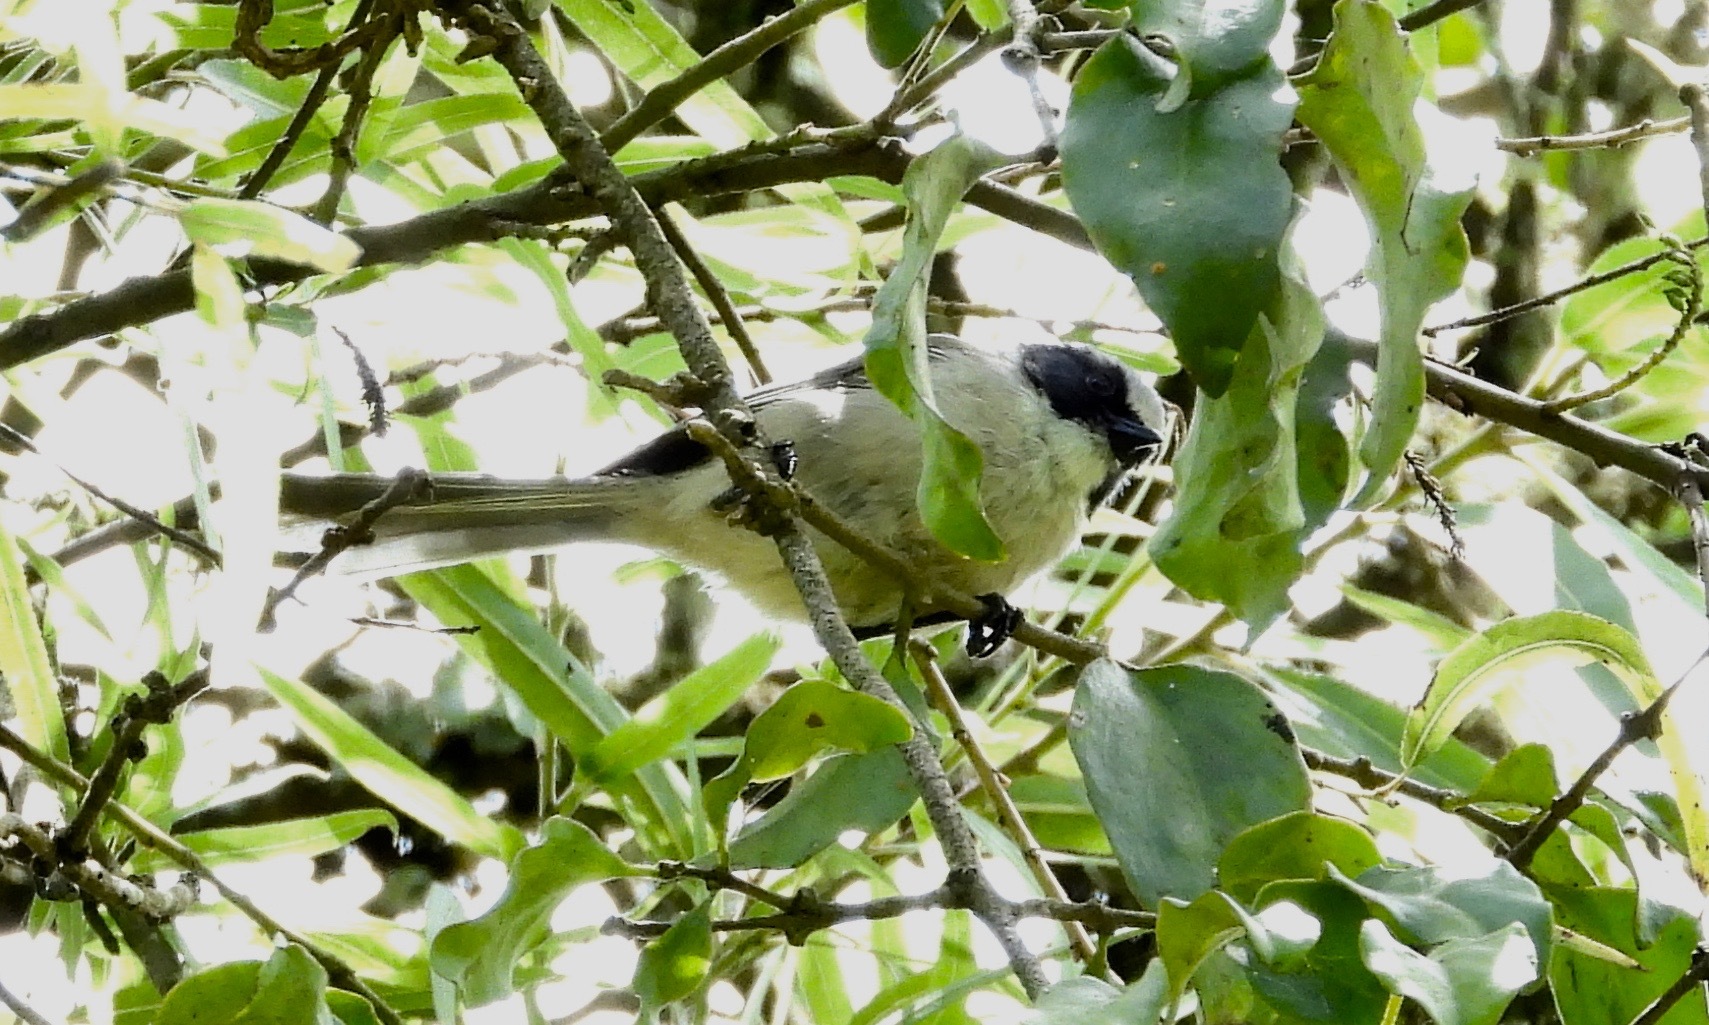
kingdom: Animalia
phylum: Chordata
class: Aves
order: Passeriformes
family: Aegithalidae
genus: Psaltriparus
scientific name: Psaltriparus minimus
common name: American bushtit
